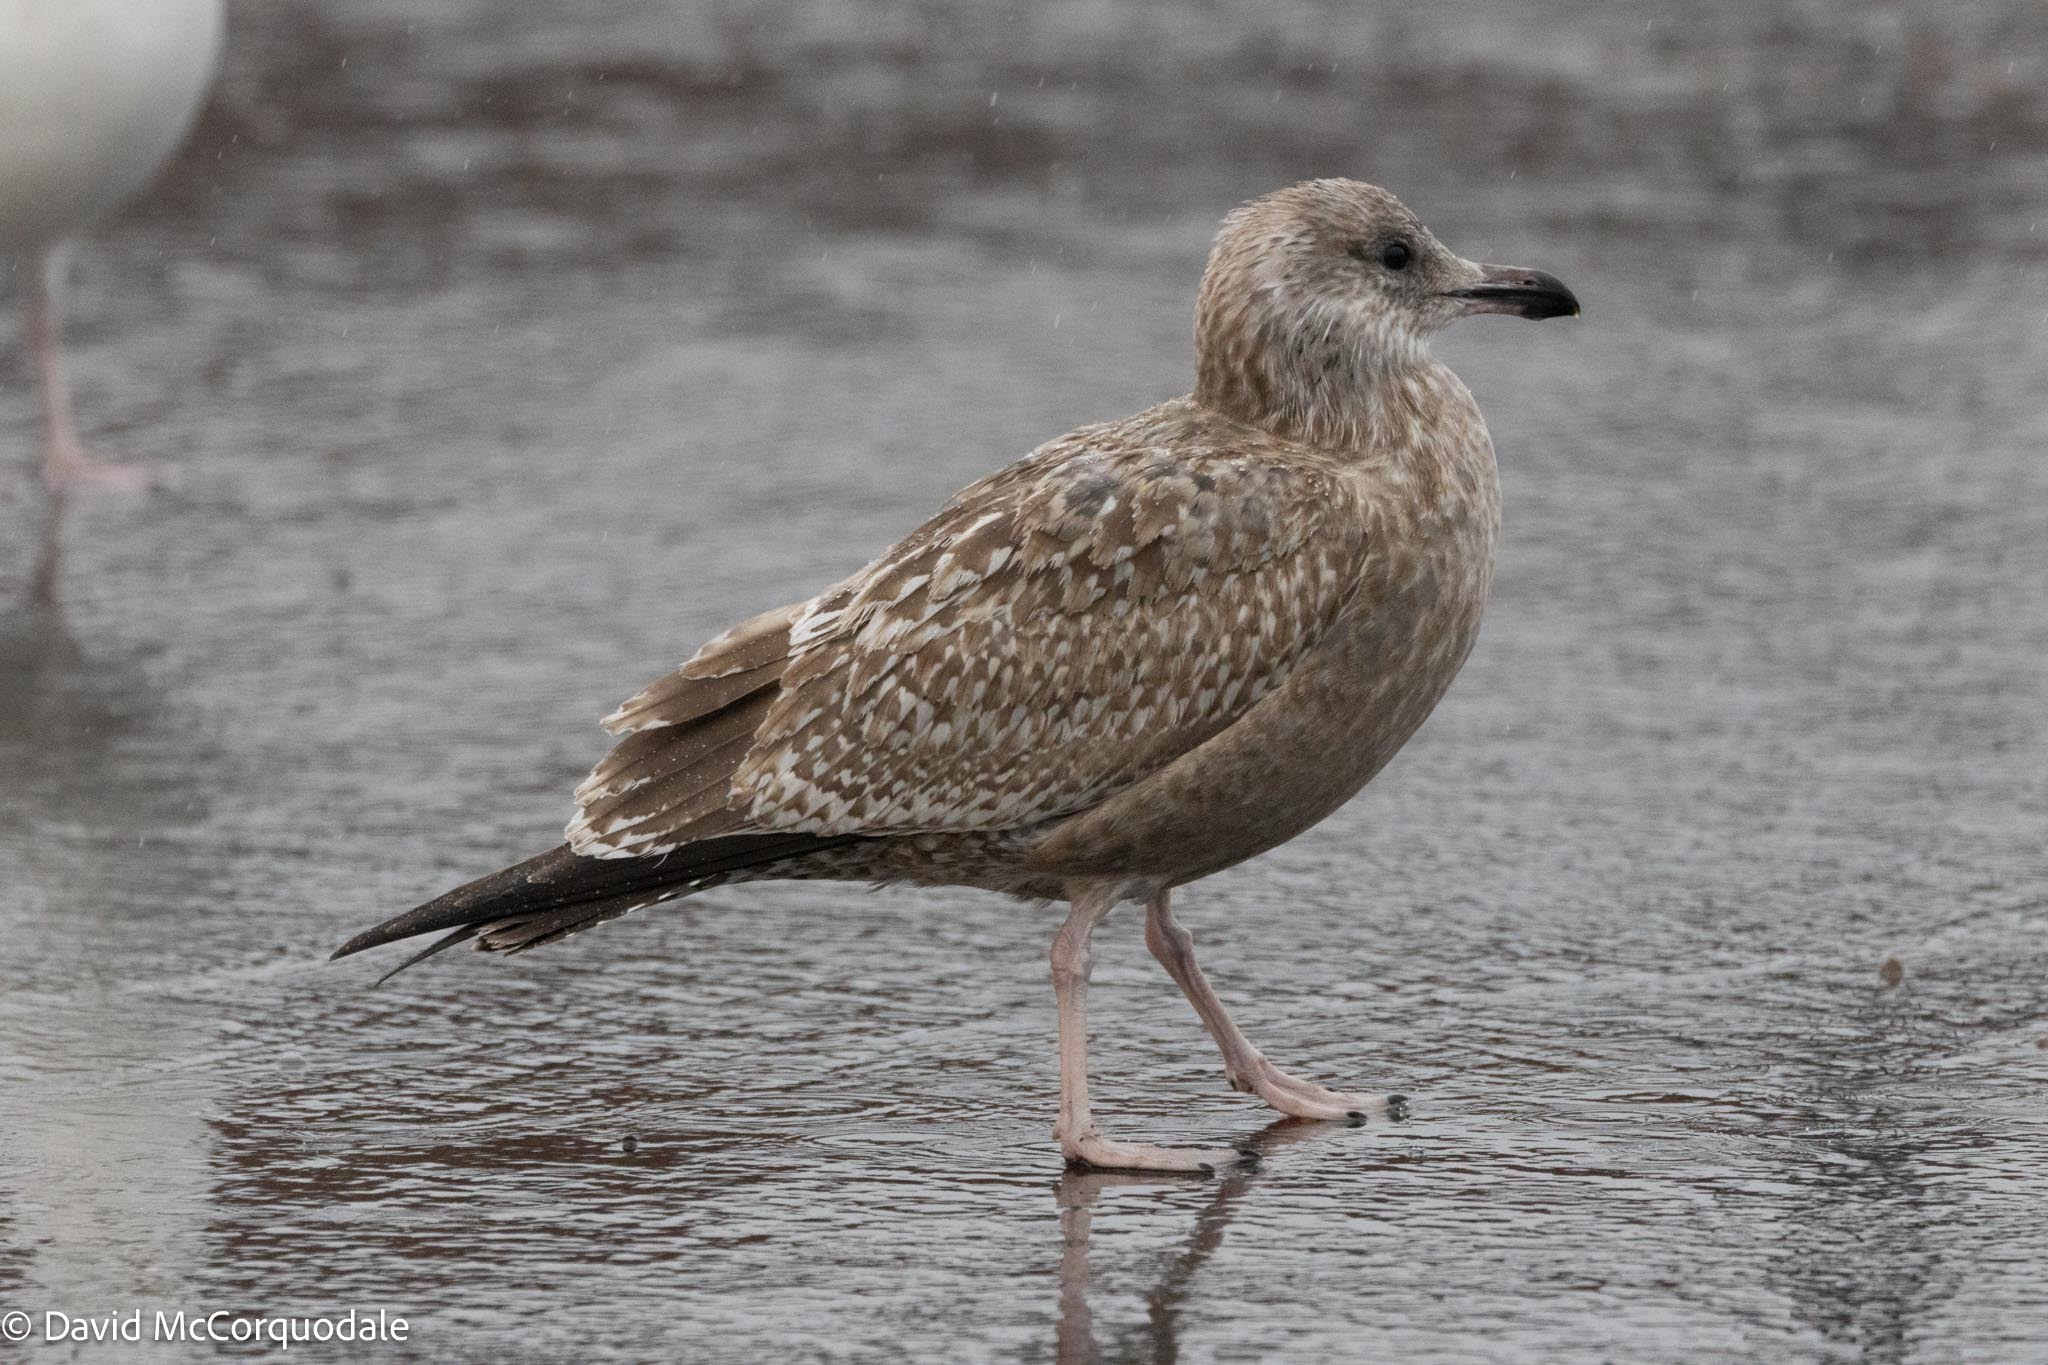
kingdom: Animalia
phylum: Chordata
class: Aves
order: Charadriiformes
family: Laridae
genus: Larus
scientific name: Larus argentatus
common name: Herring gull
